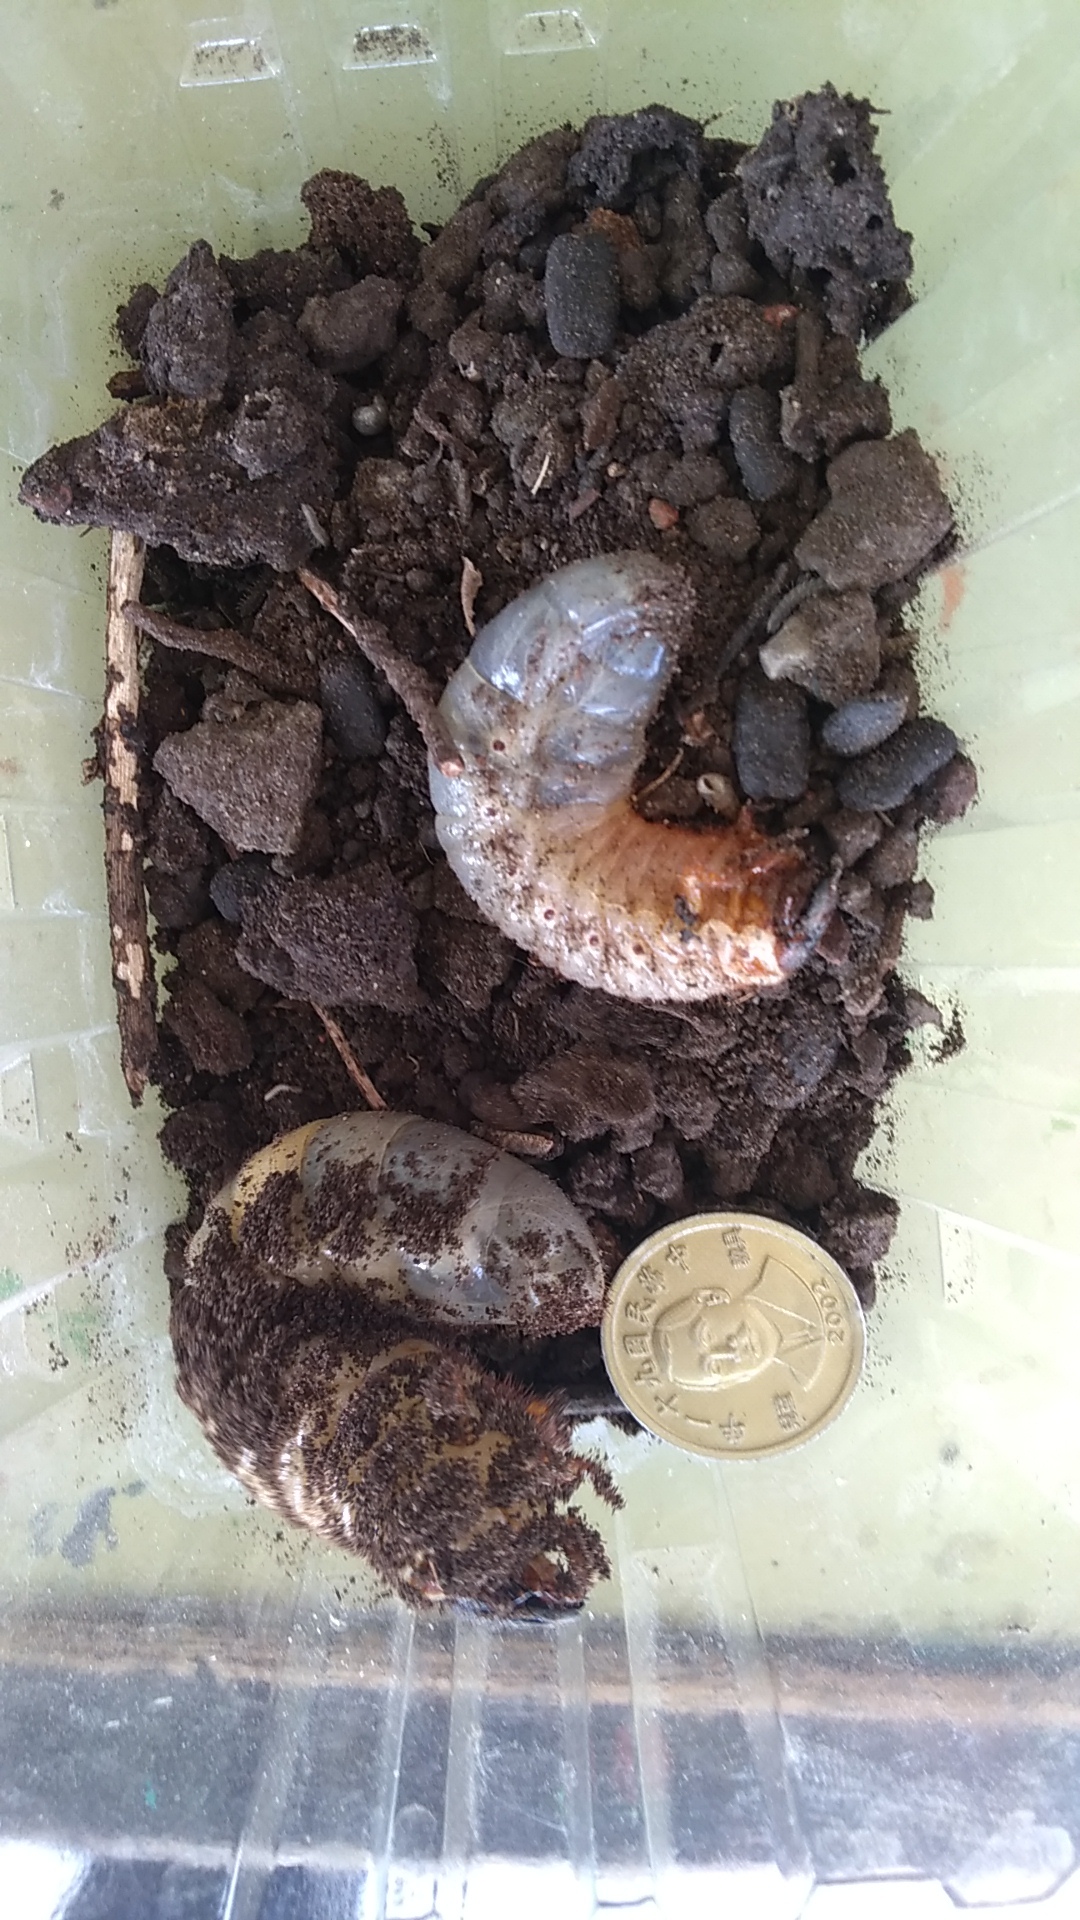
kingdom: Animalia
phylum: Arthropoda
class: Insecta
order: Coleoptera
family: Scarabaeidae
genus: Trypoxylus
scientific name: Trypoxylus dichotomus
